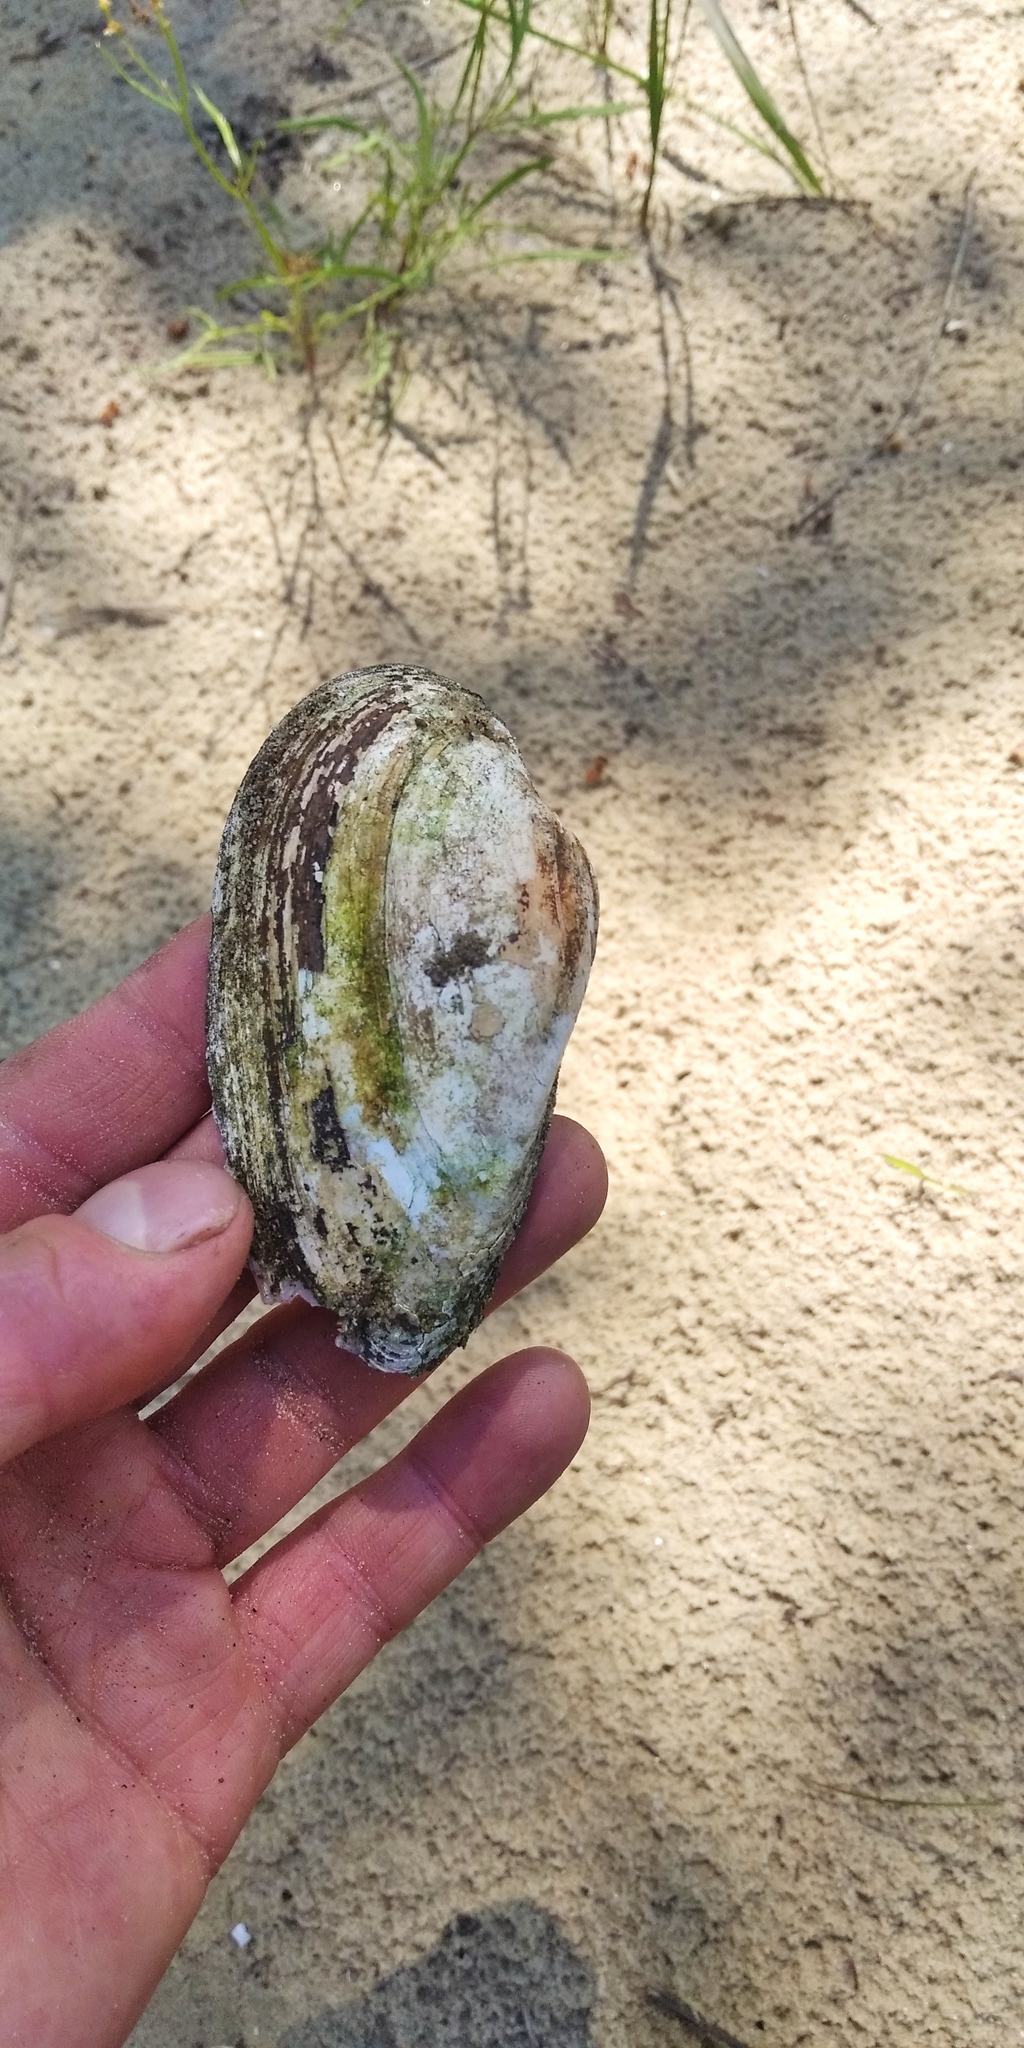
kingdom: Animalia
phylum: Mollusca
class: Bivalvia
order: Unionida
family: Unionidae
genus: Unio
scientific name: Unio tumidus
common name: Swollen river mussel
